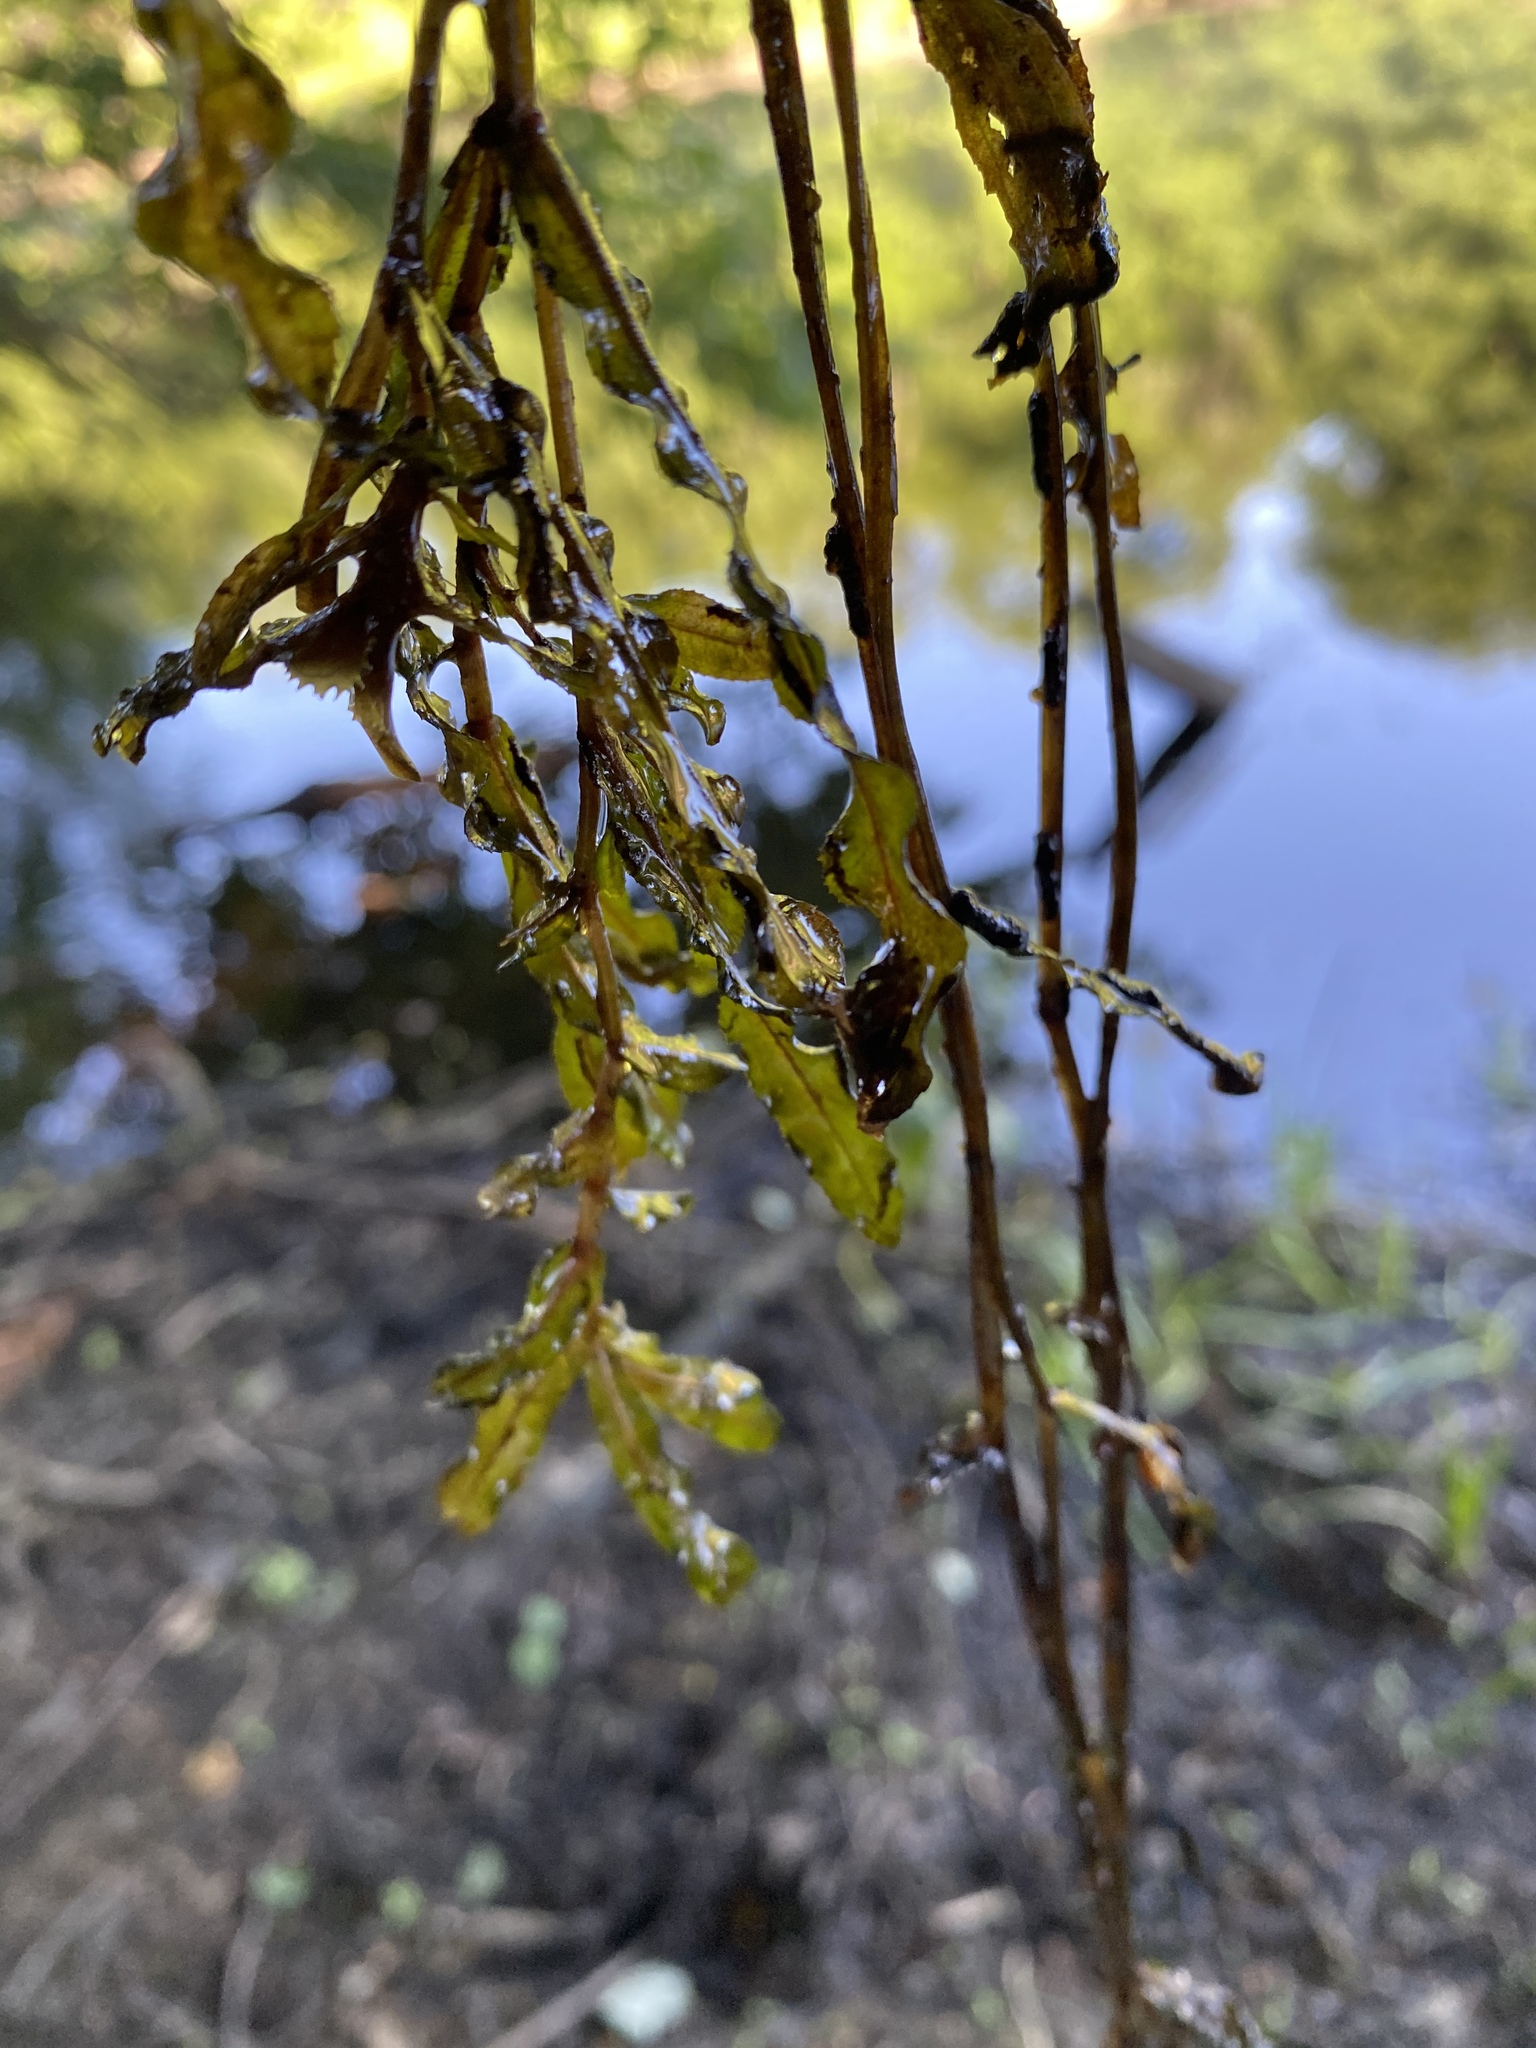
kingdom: Plantae
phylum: Tracheophyta
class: Liliopsida
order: Alismatales
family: Potamogetonaceae
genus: Potamogeton
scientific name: Potamogeton crispus
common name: Curled pondweed
